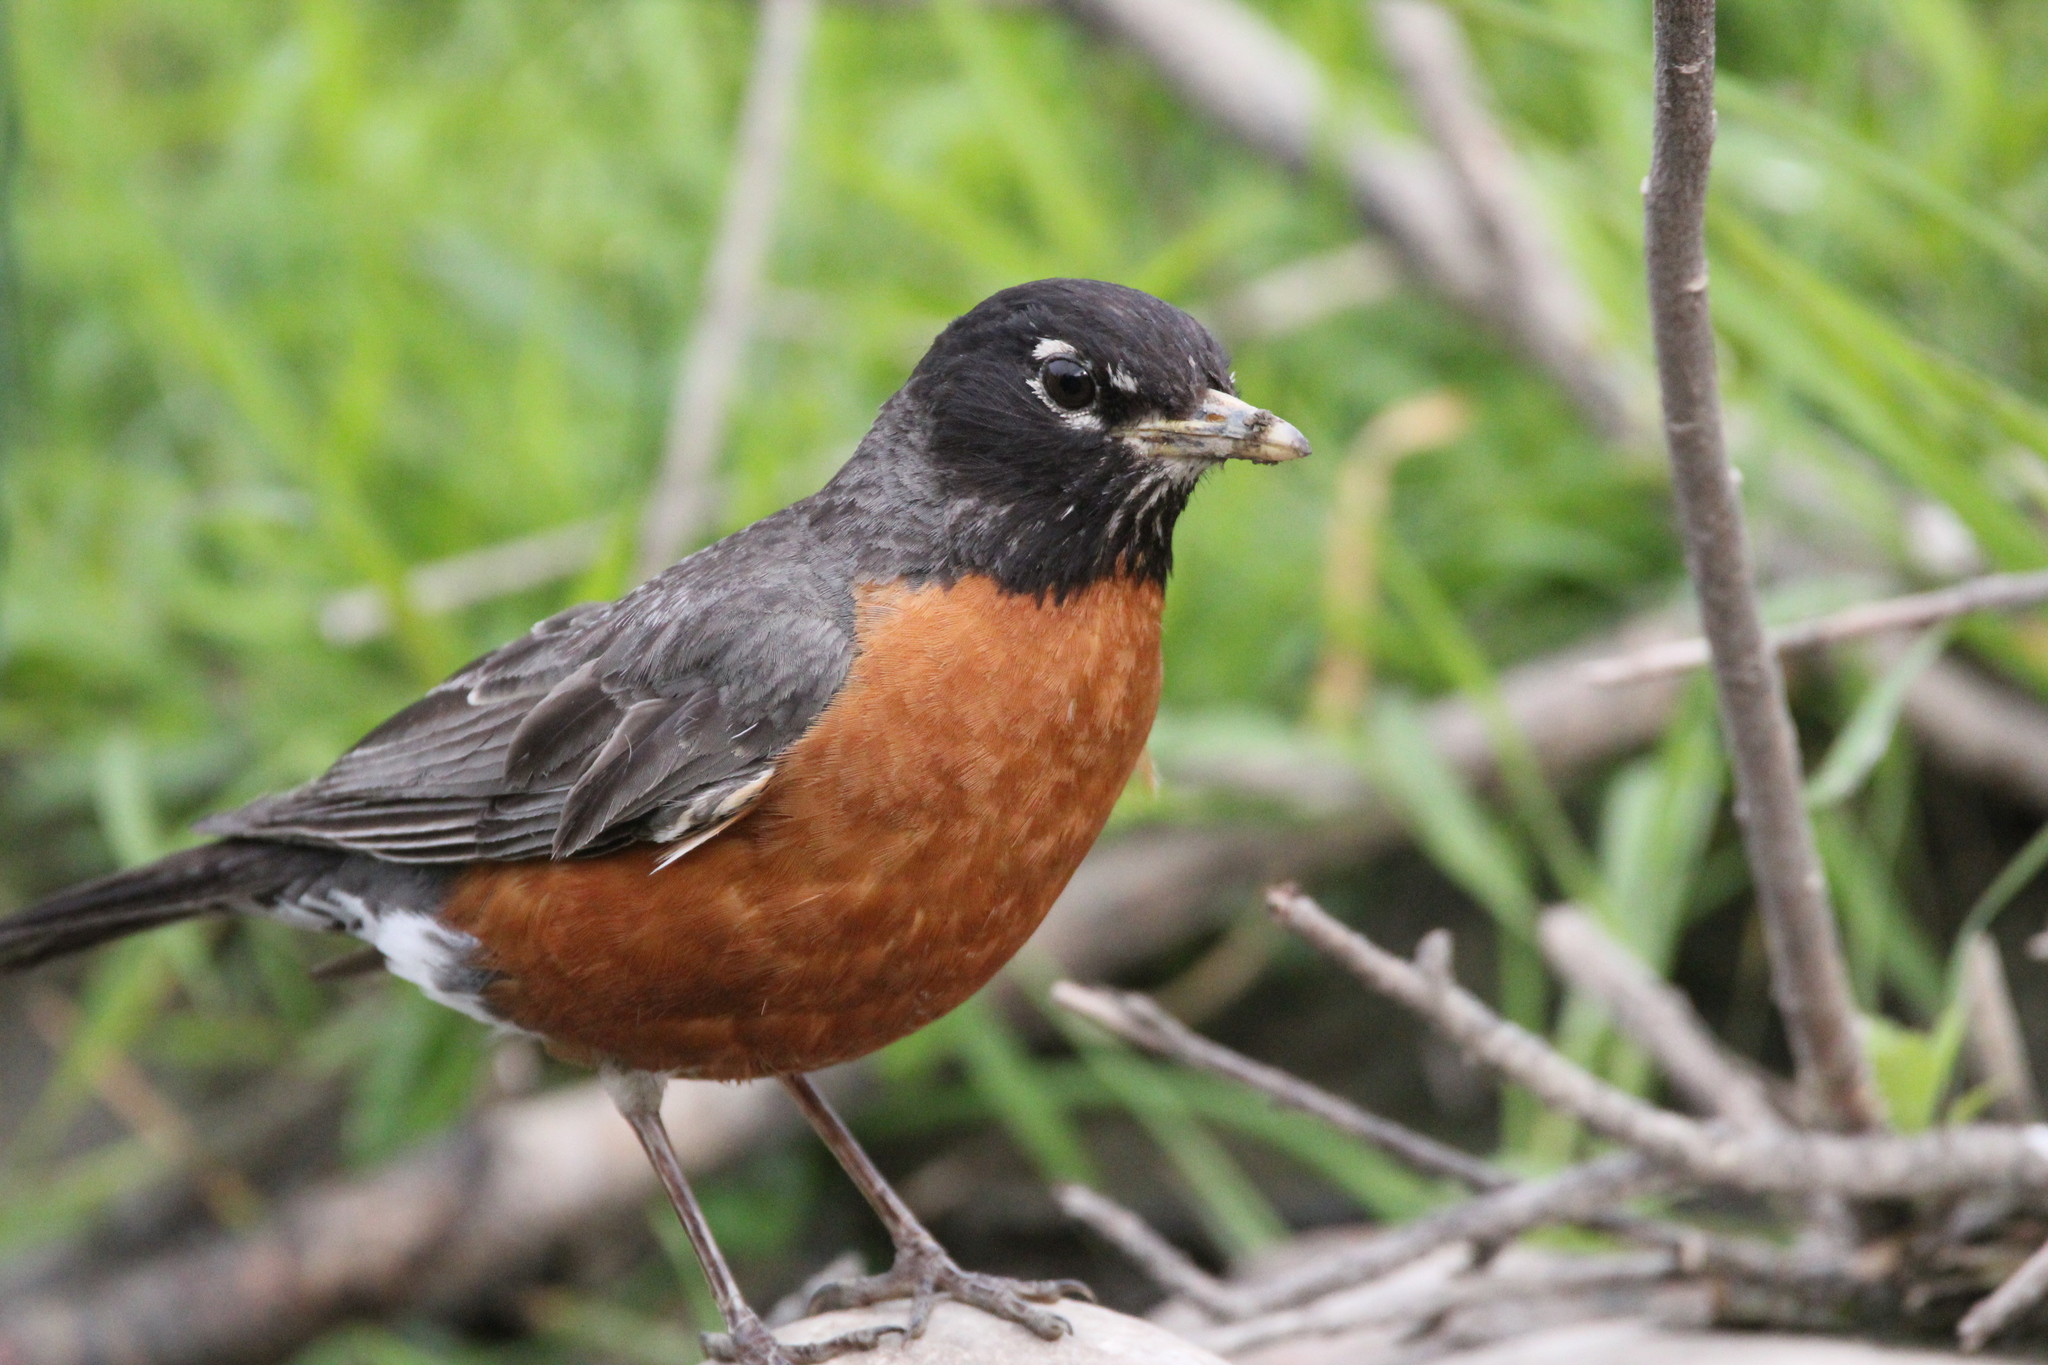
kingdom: Animalia
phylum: Chordata
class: Aves
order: Passeriformes
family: Turdidae
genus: Turdus
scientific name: Turdus migratorius
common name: American robin
